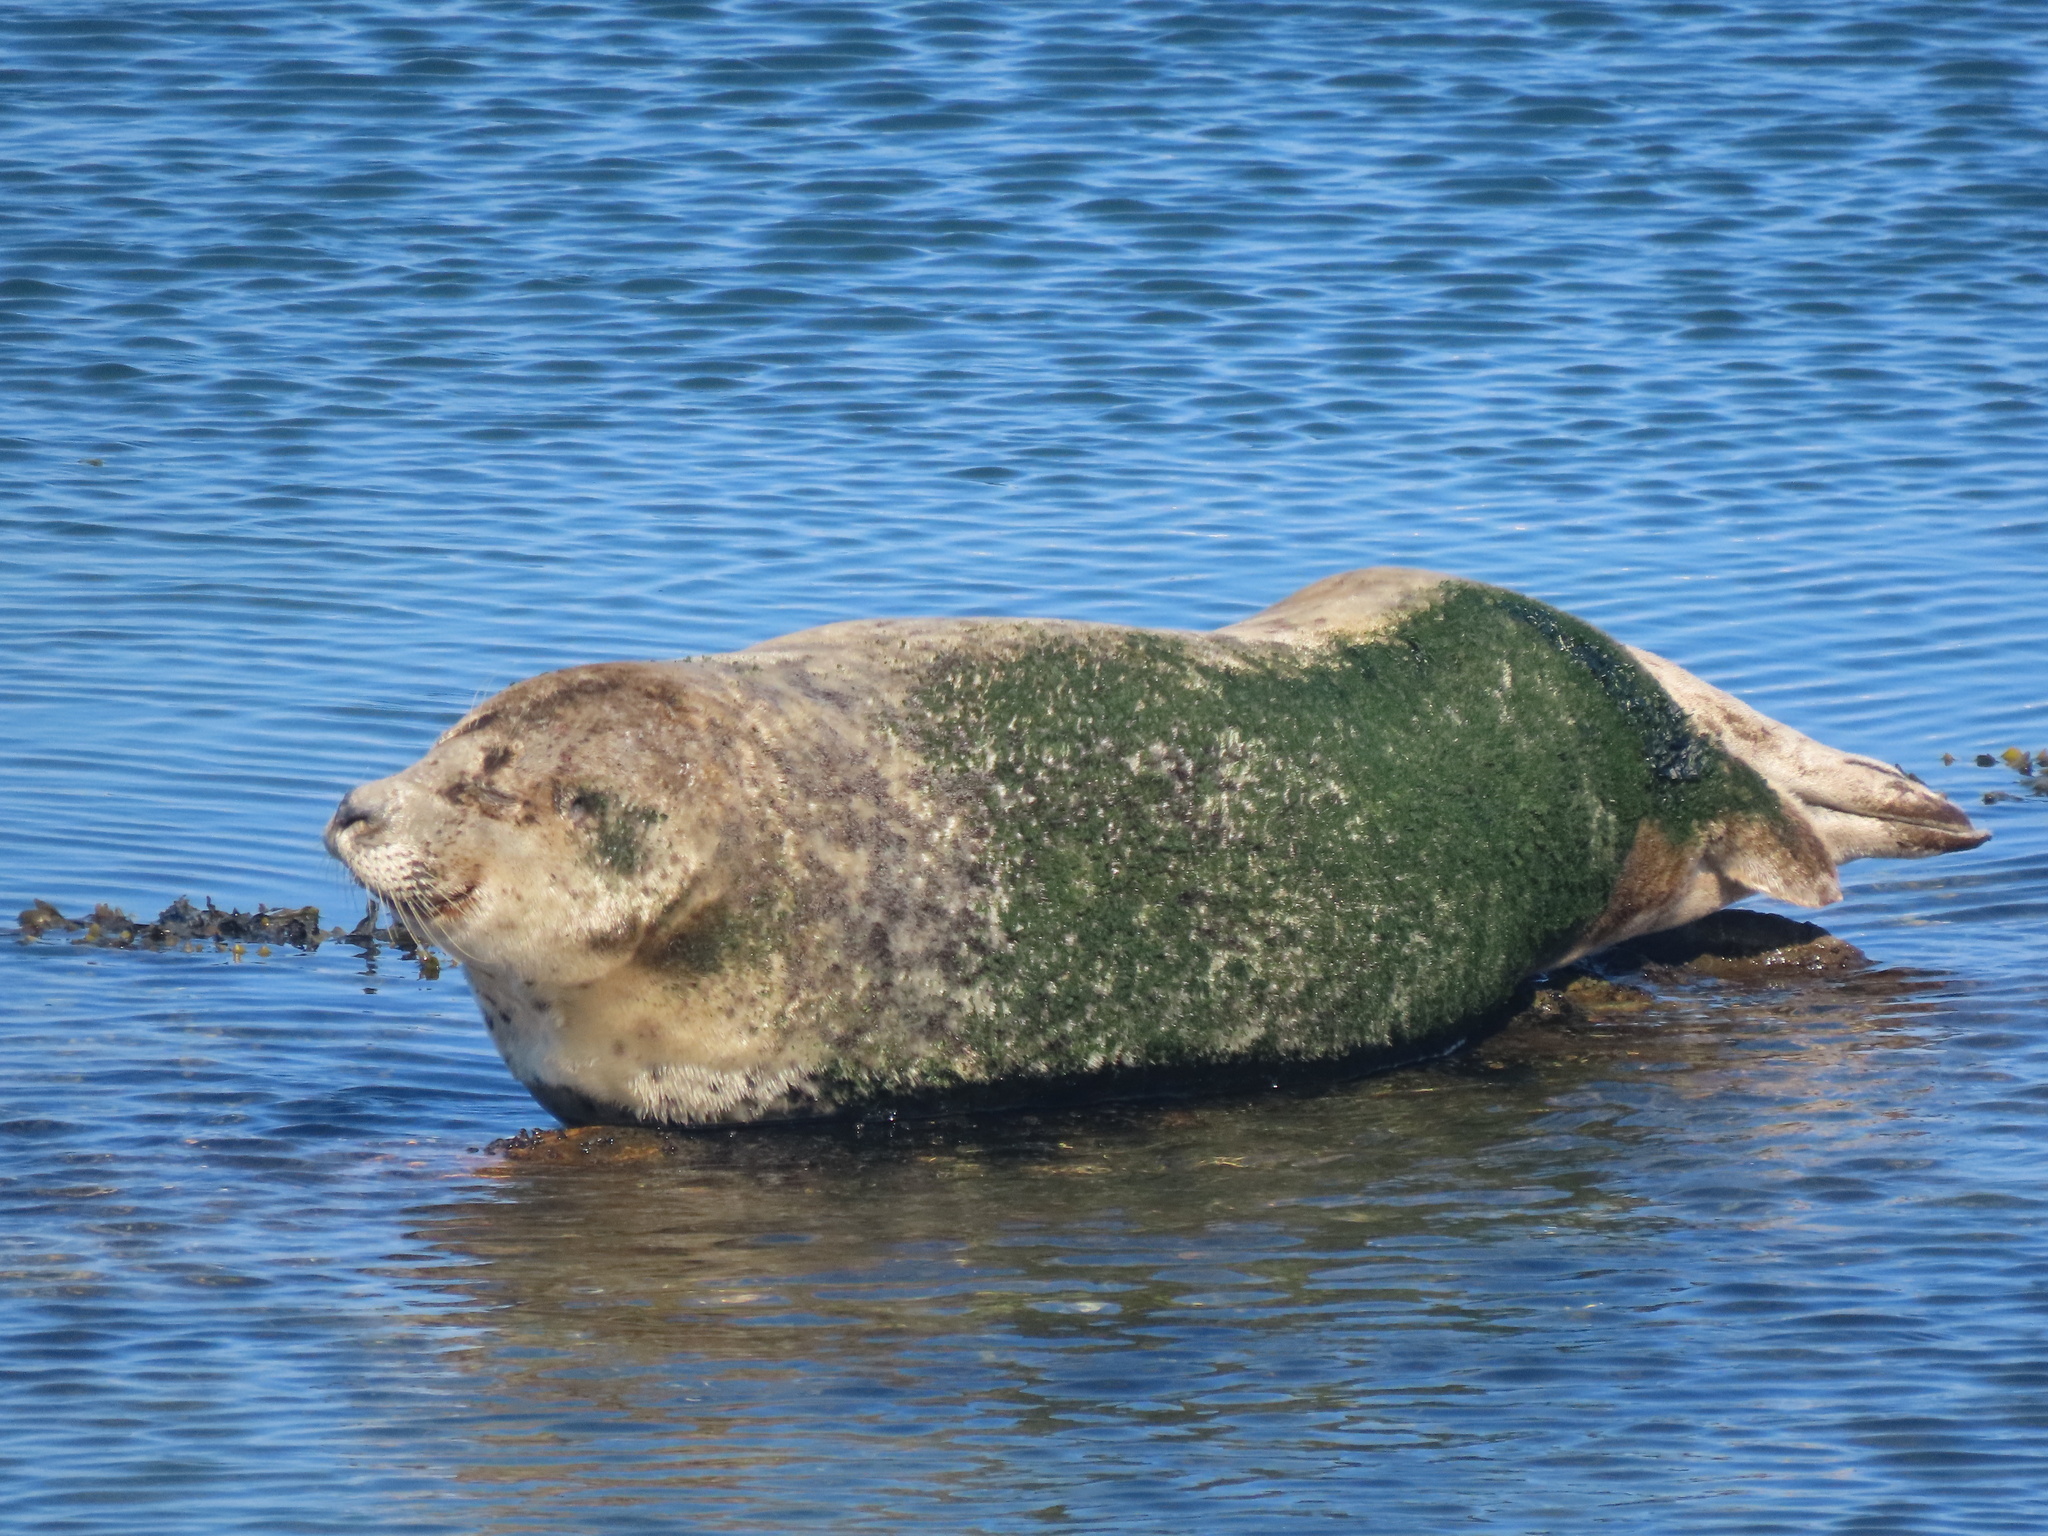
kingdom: Animalia
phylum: Chordata
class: Mammalia
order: Carnivora
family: Phocidae
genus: Phoca
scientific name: Phoca vitulina
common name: Harbor seal
